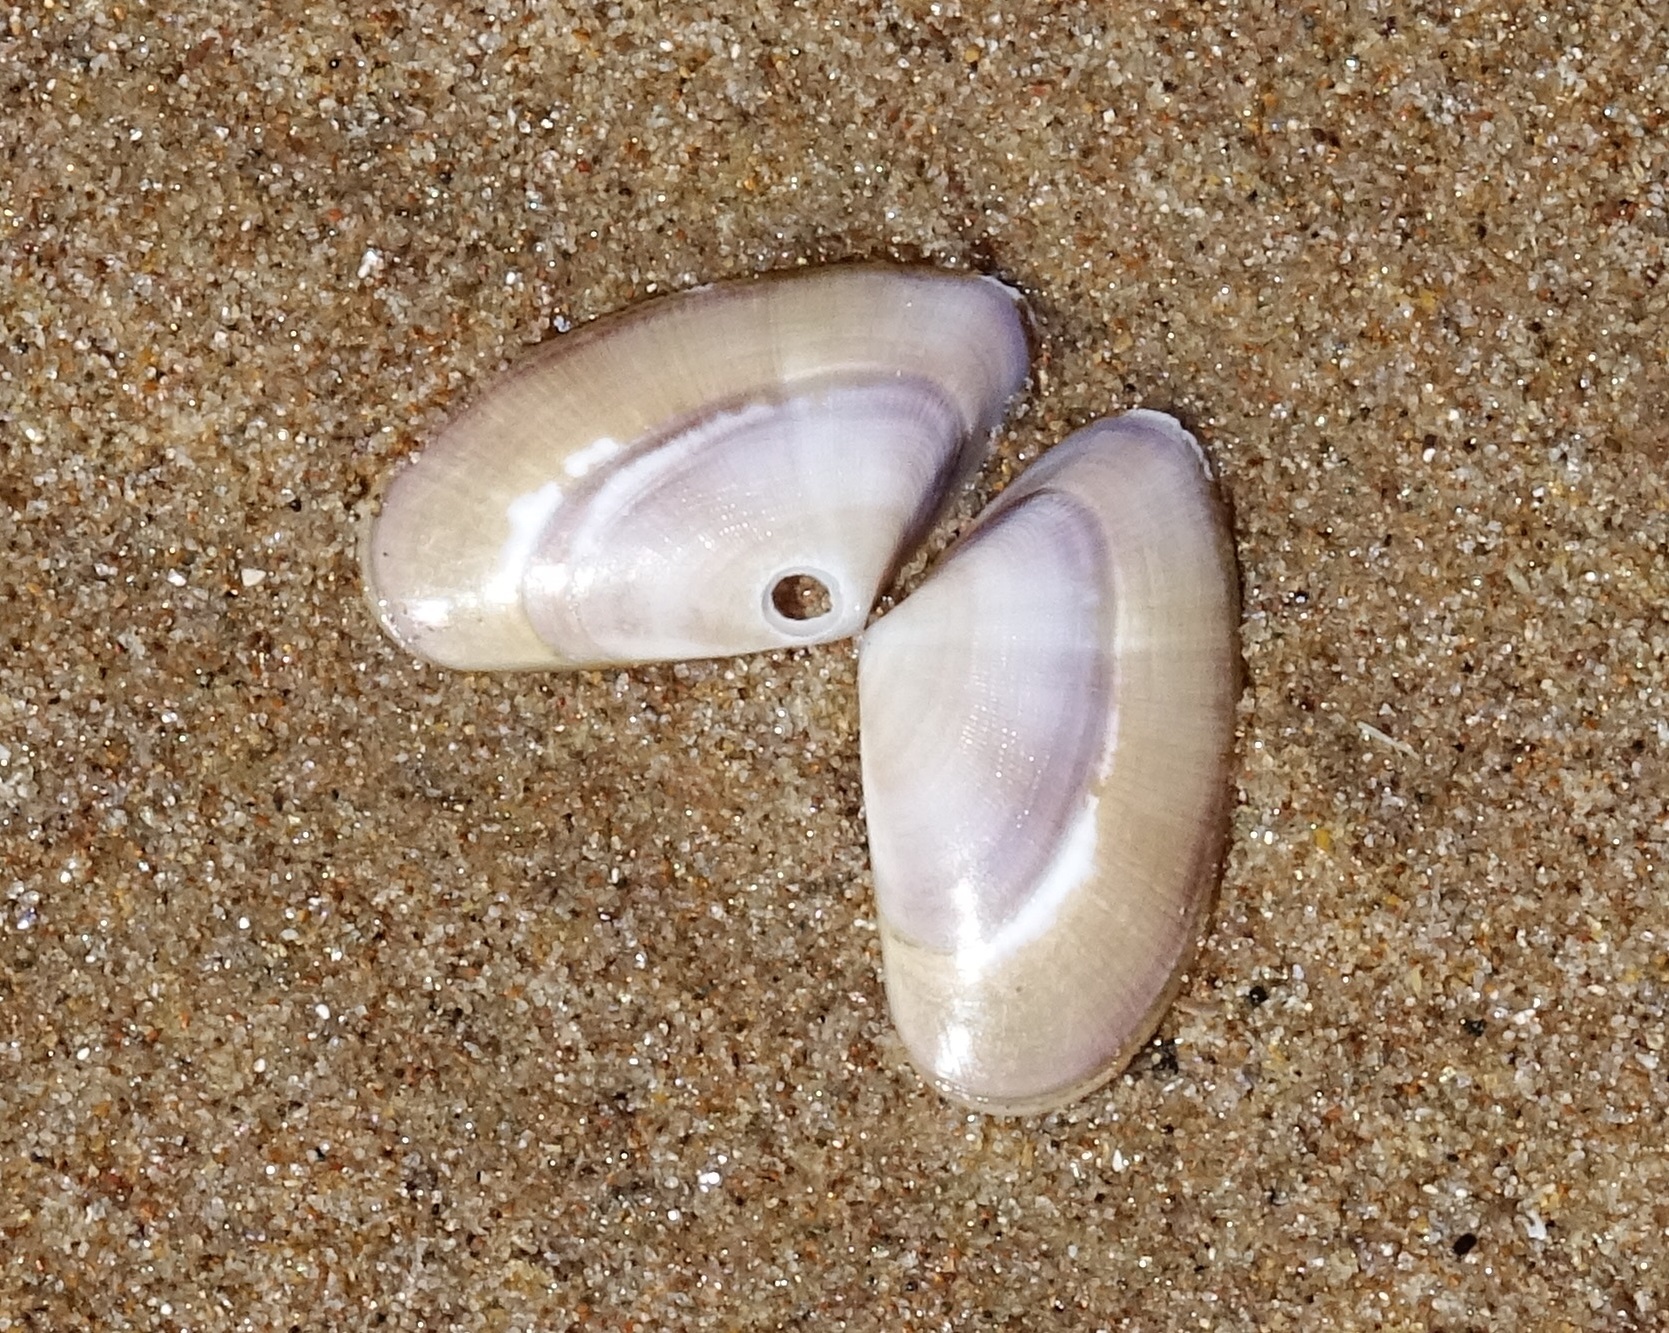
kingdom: Animalia
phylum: Mollusca
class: Bivalvia
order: Cardiida
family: Donacidae
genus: Donax
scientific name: Donax vittatus
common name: Banded wedge-shell
